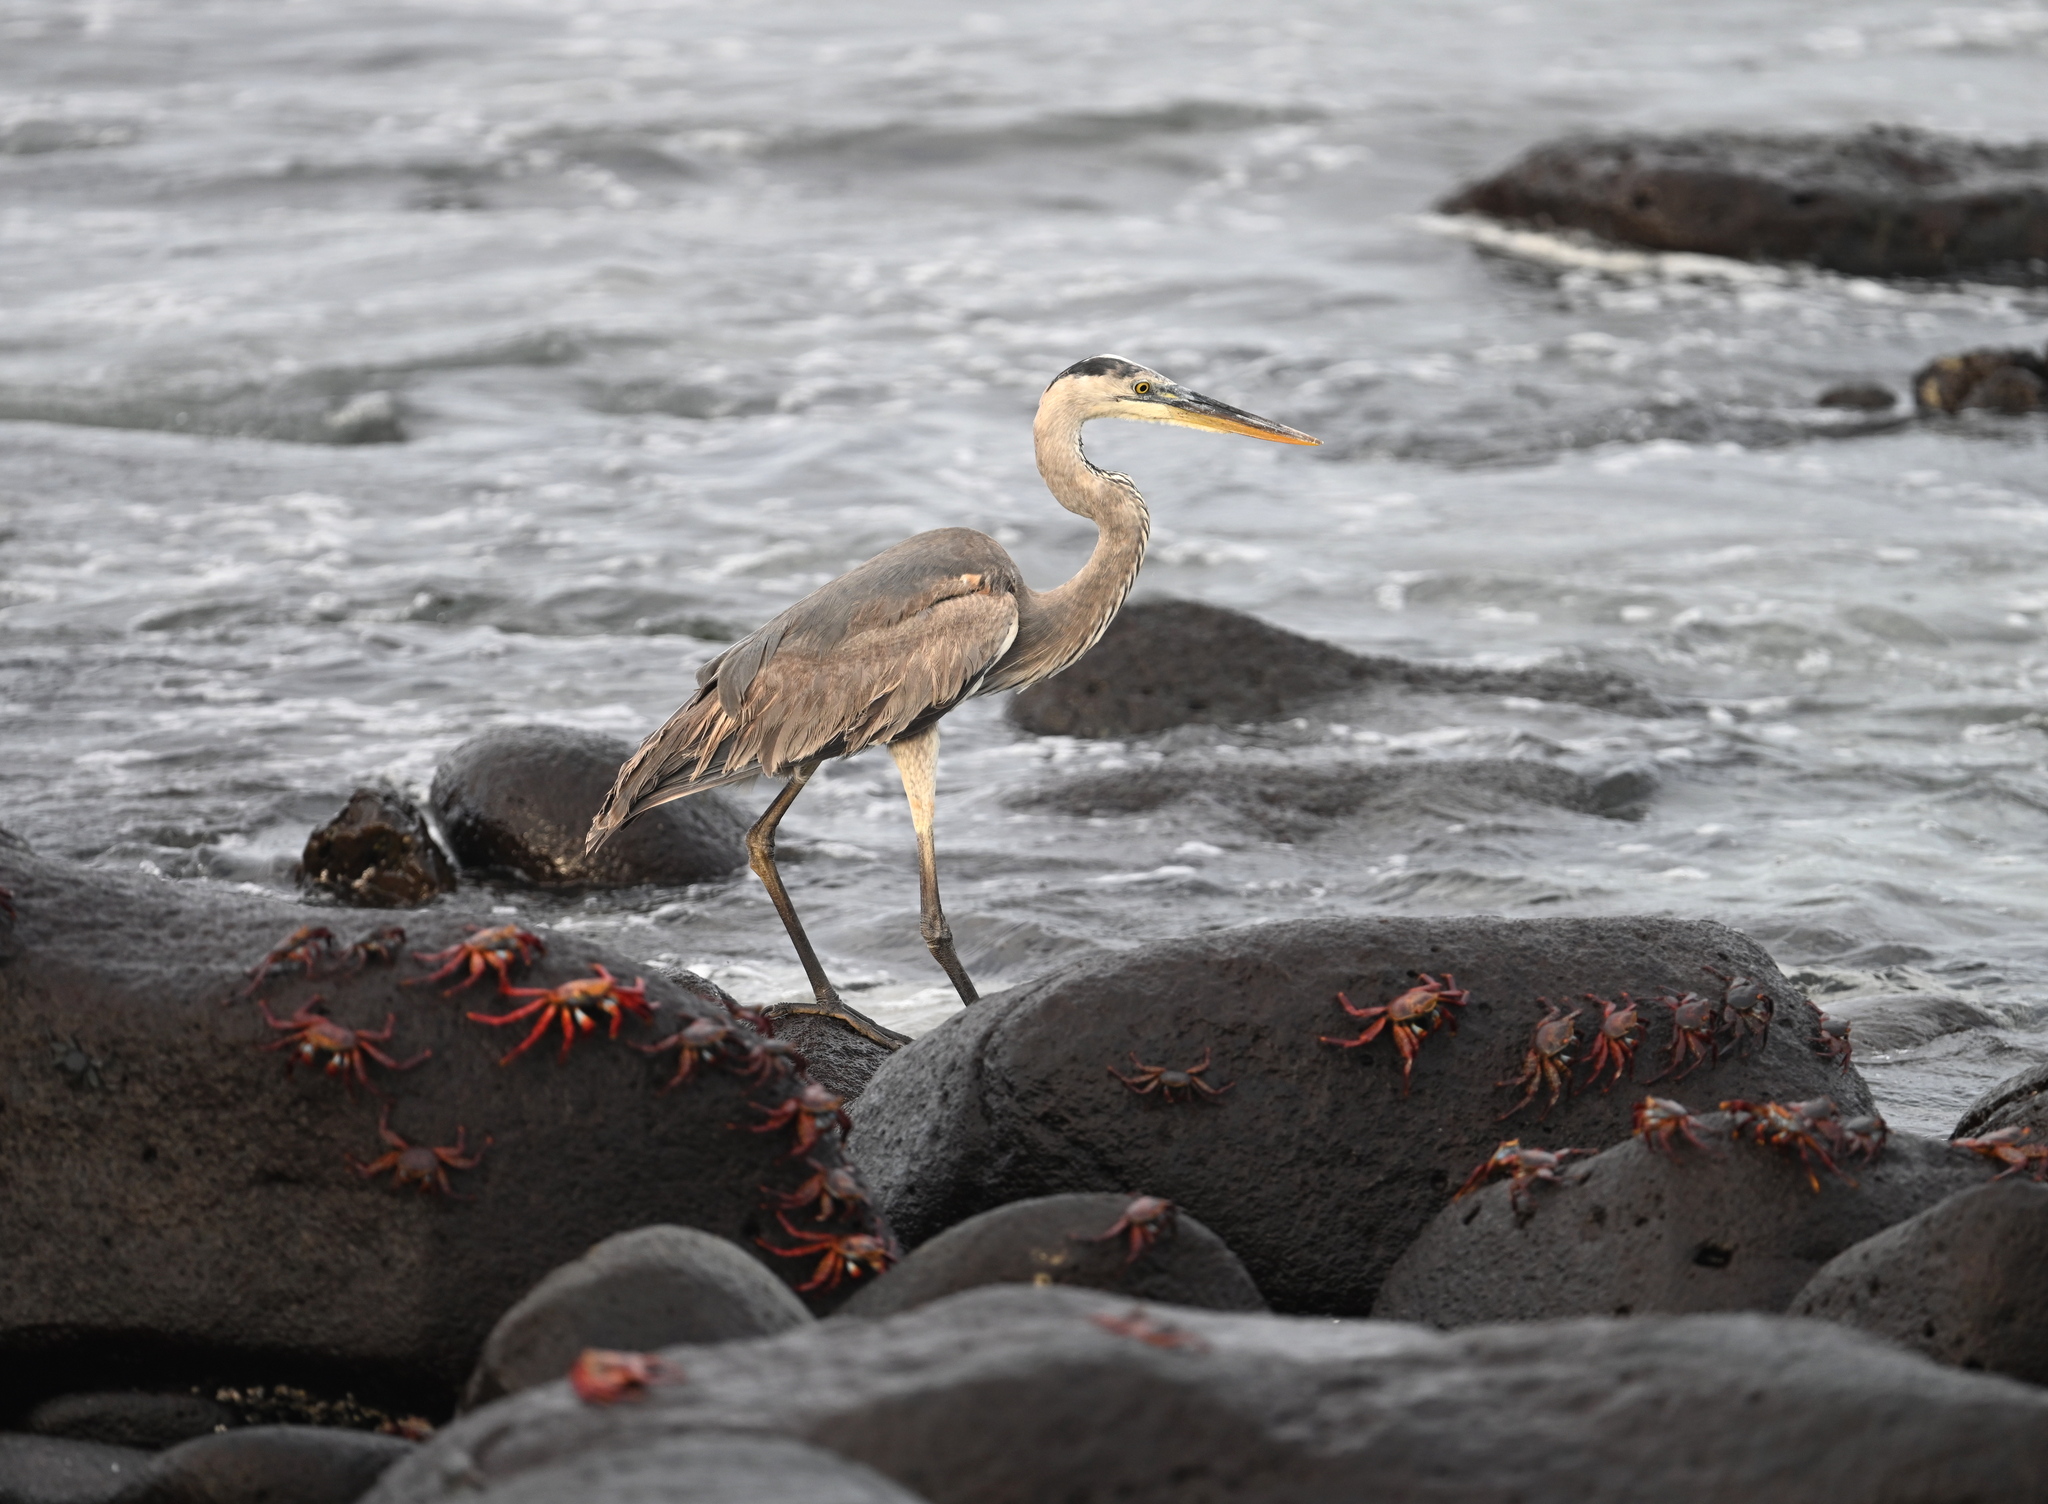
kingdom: Animalia
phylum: Chordata
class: Aves
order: Pelecaniformes
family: Ardeidae
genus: Ardea
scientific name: Ardea herodias
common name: Great blue heron
